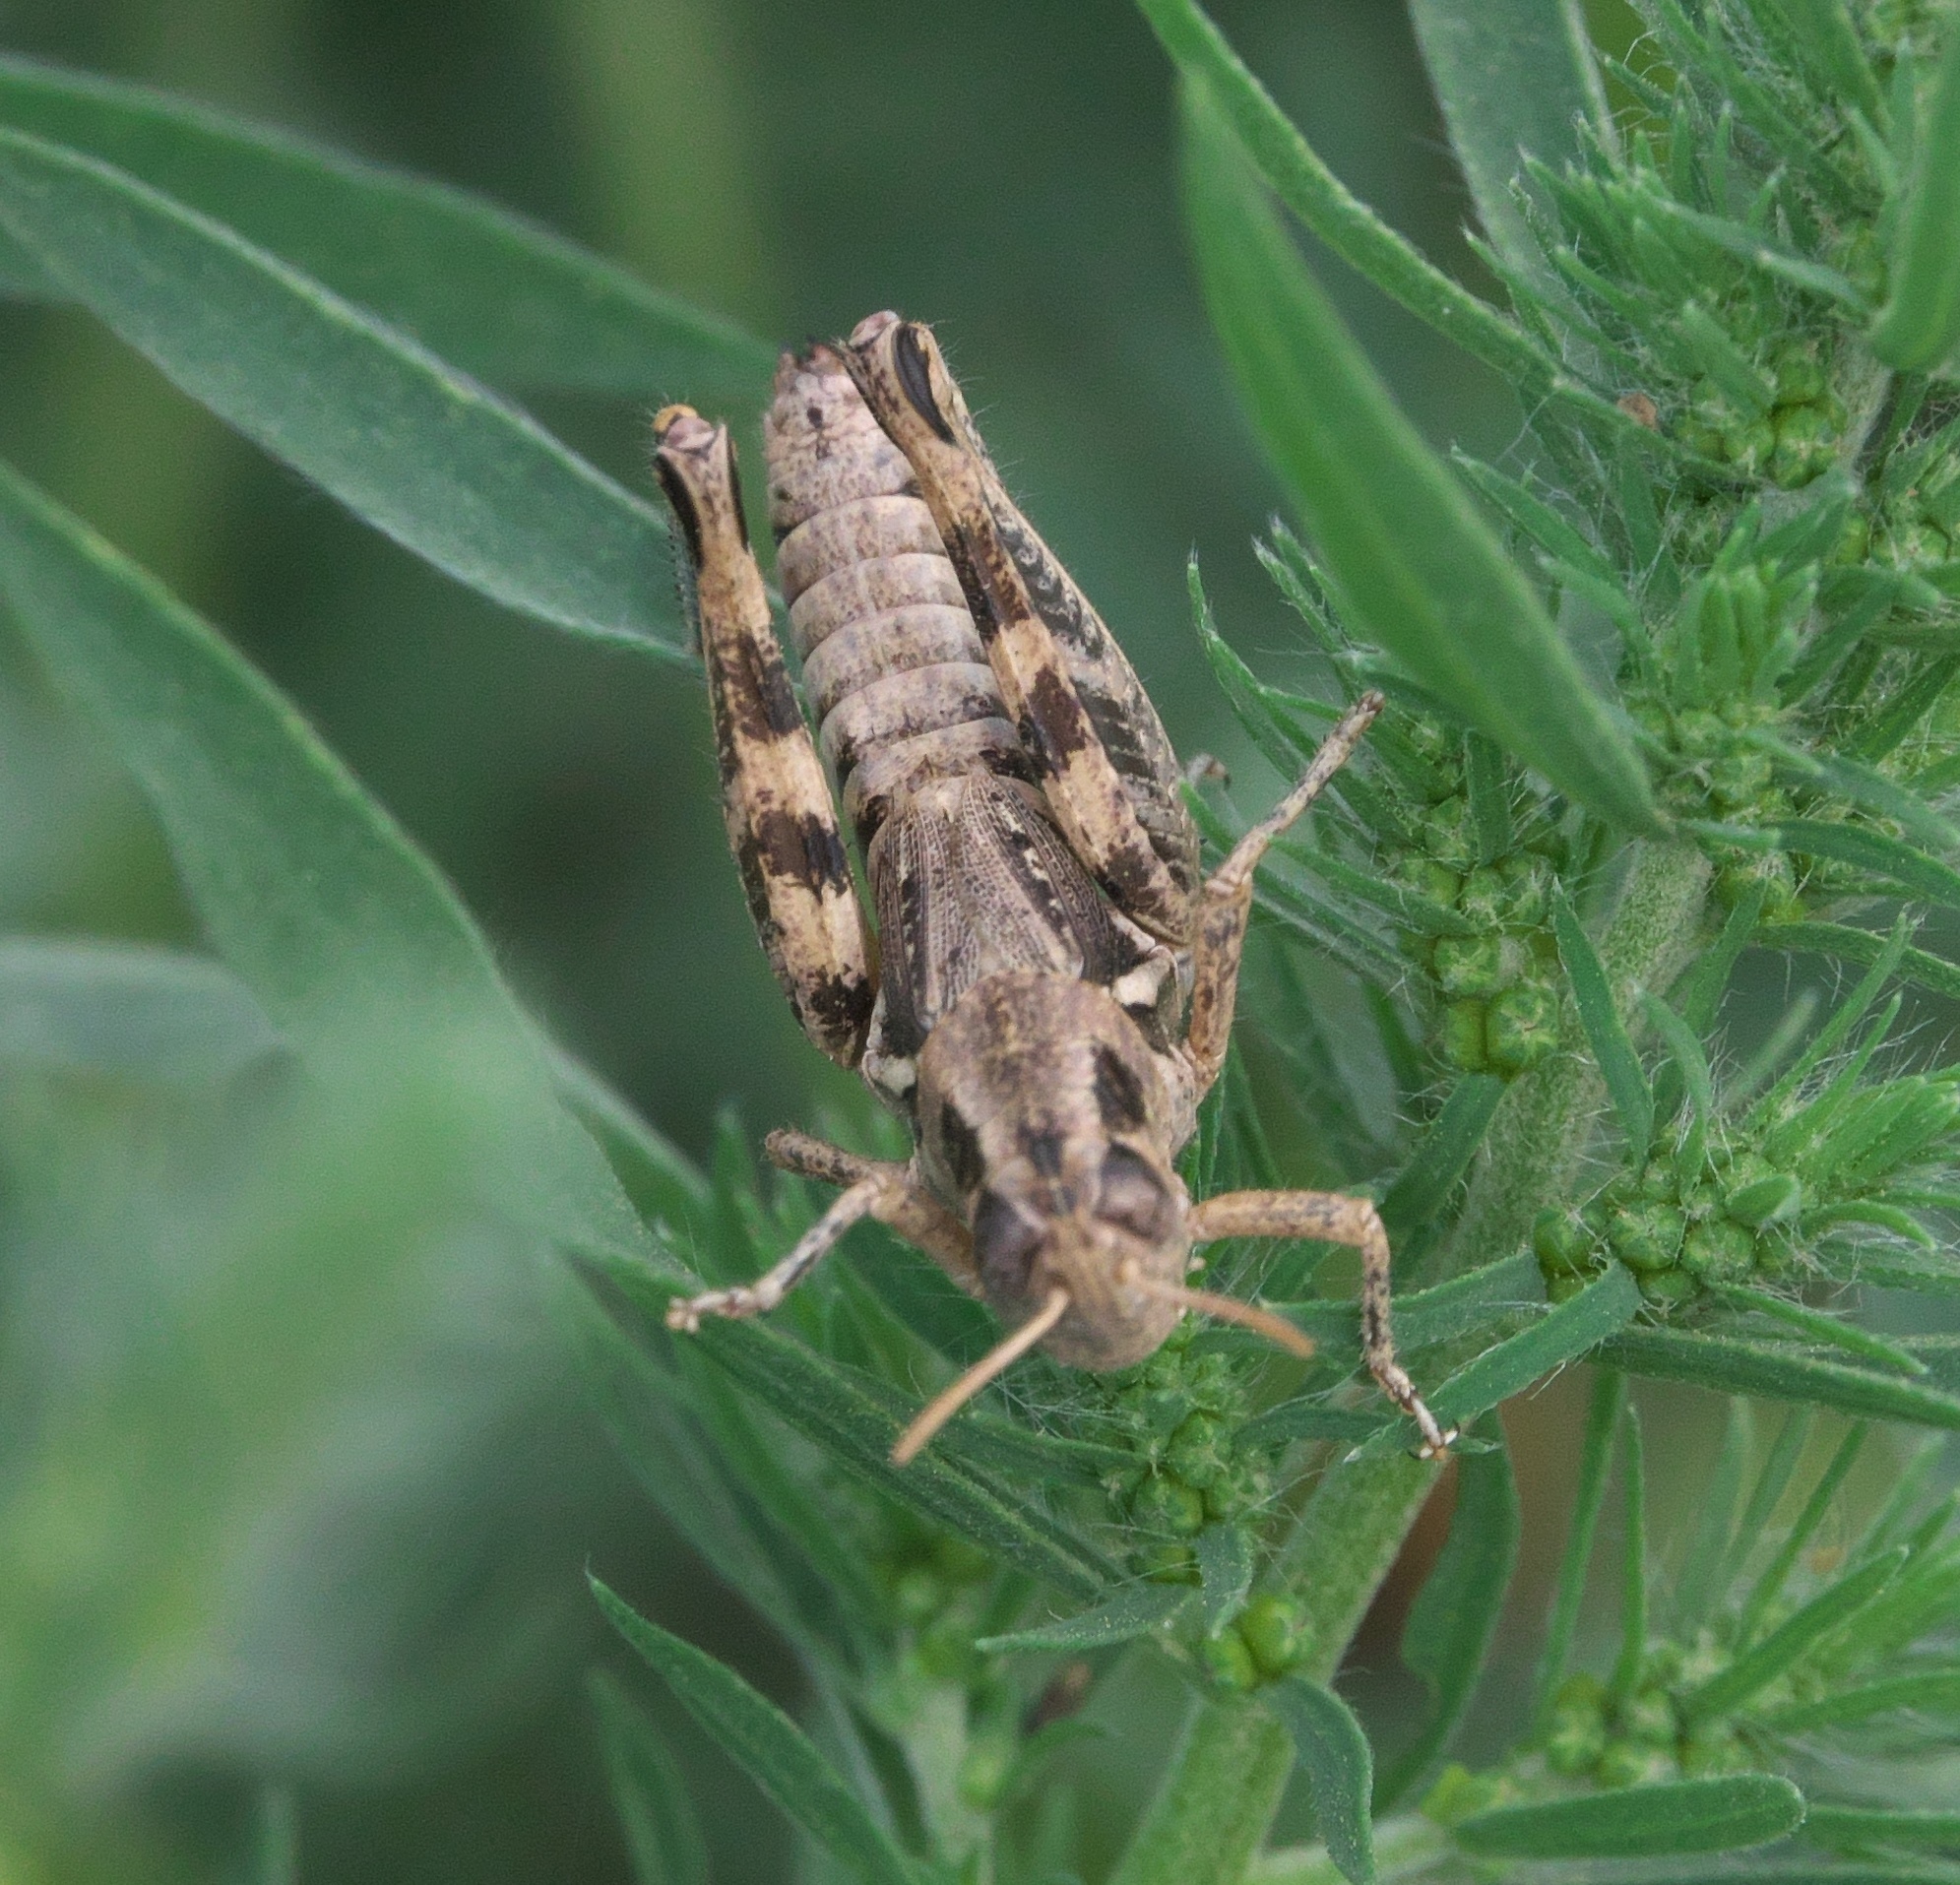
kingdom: Animalia
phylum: Arthropoda
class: Insecta
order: Orthoptera
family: Acrididae
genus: Melanoplus
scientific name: Melanoplus lakinus
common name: Lakin grasshopper
